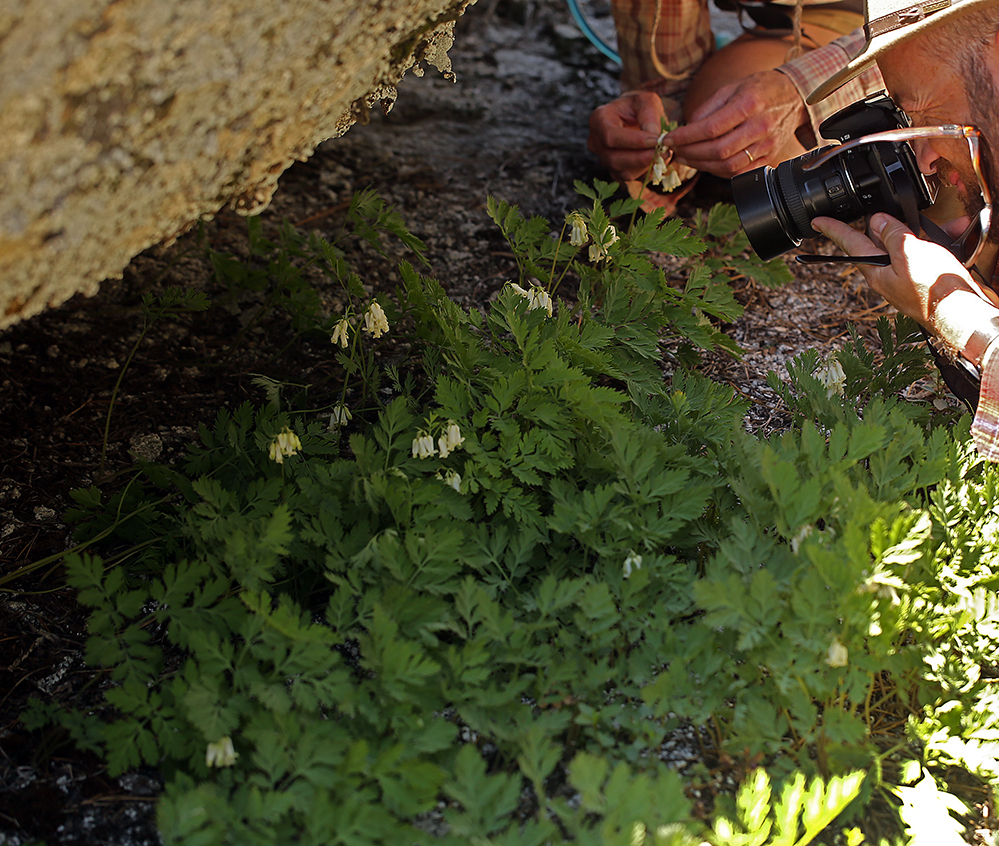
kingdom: Plantae
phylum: Tracheophyta
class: Magnoliopsida
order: Ranunculales
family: Papaveraceae
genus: Dicentra
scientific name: Dicentra nevadensis
